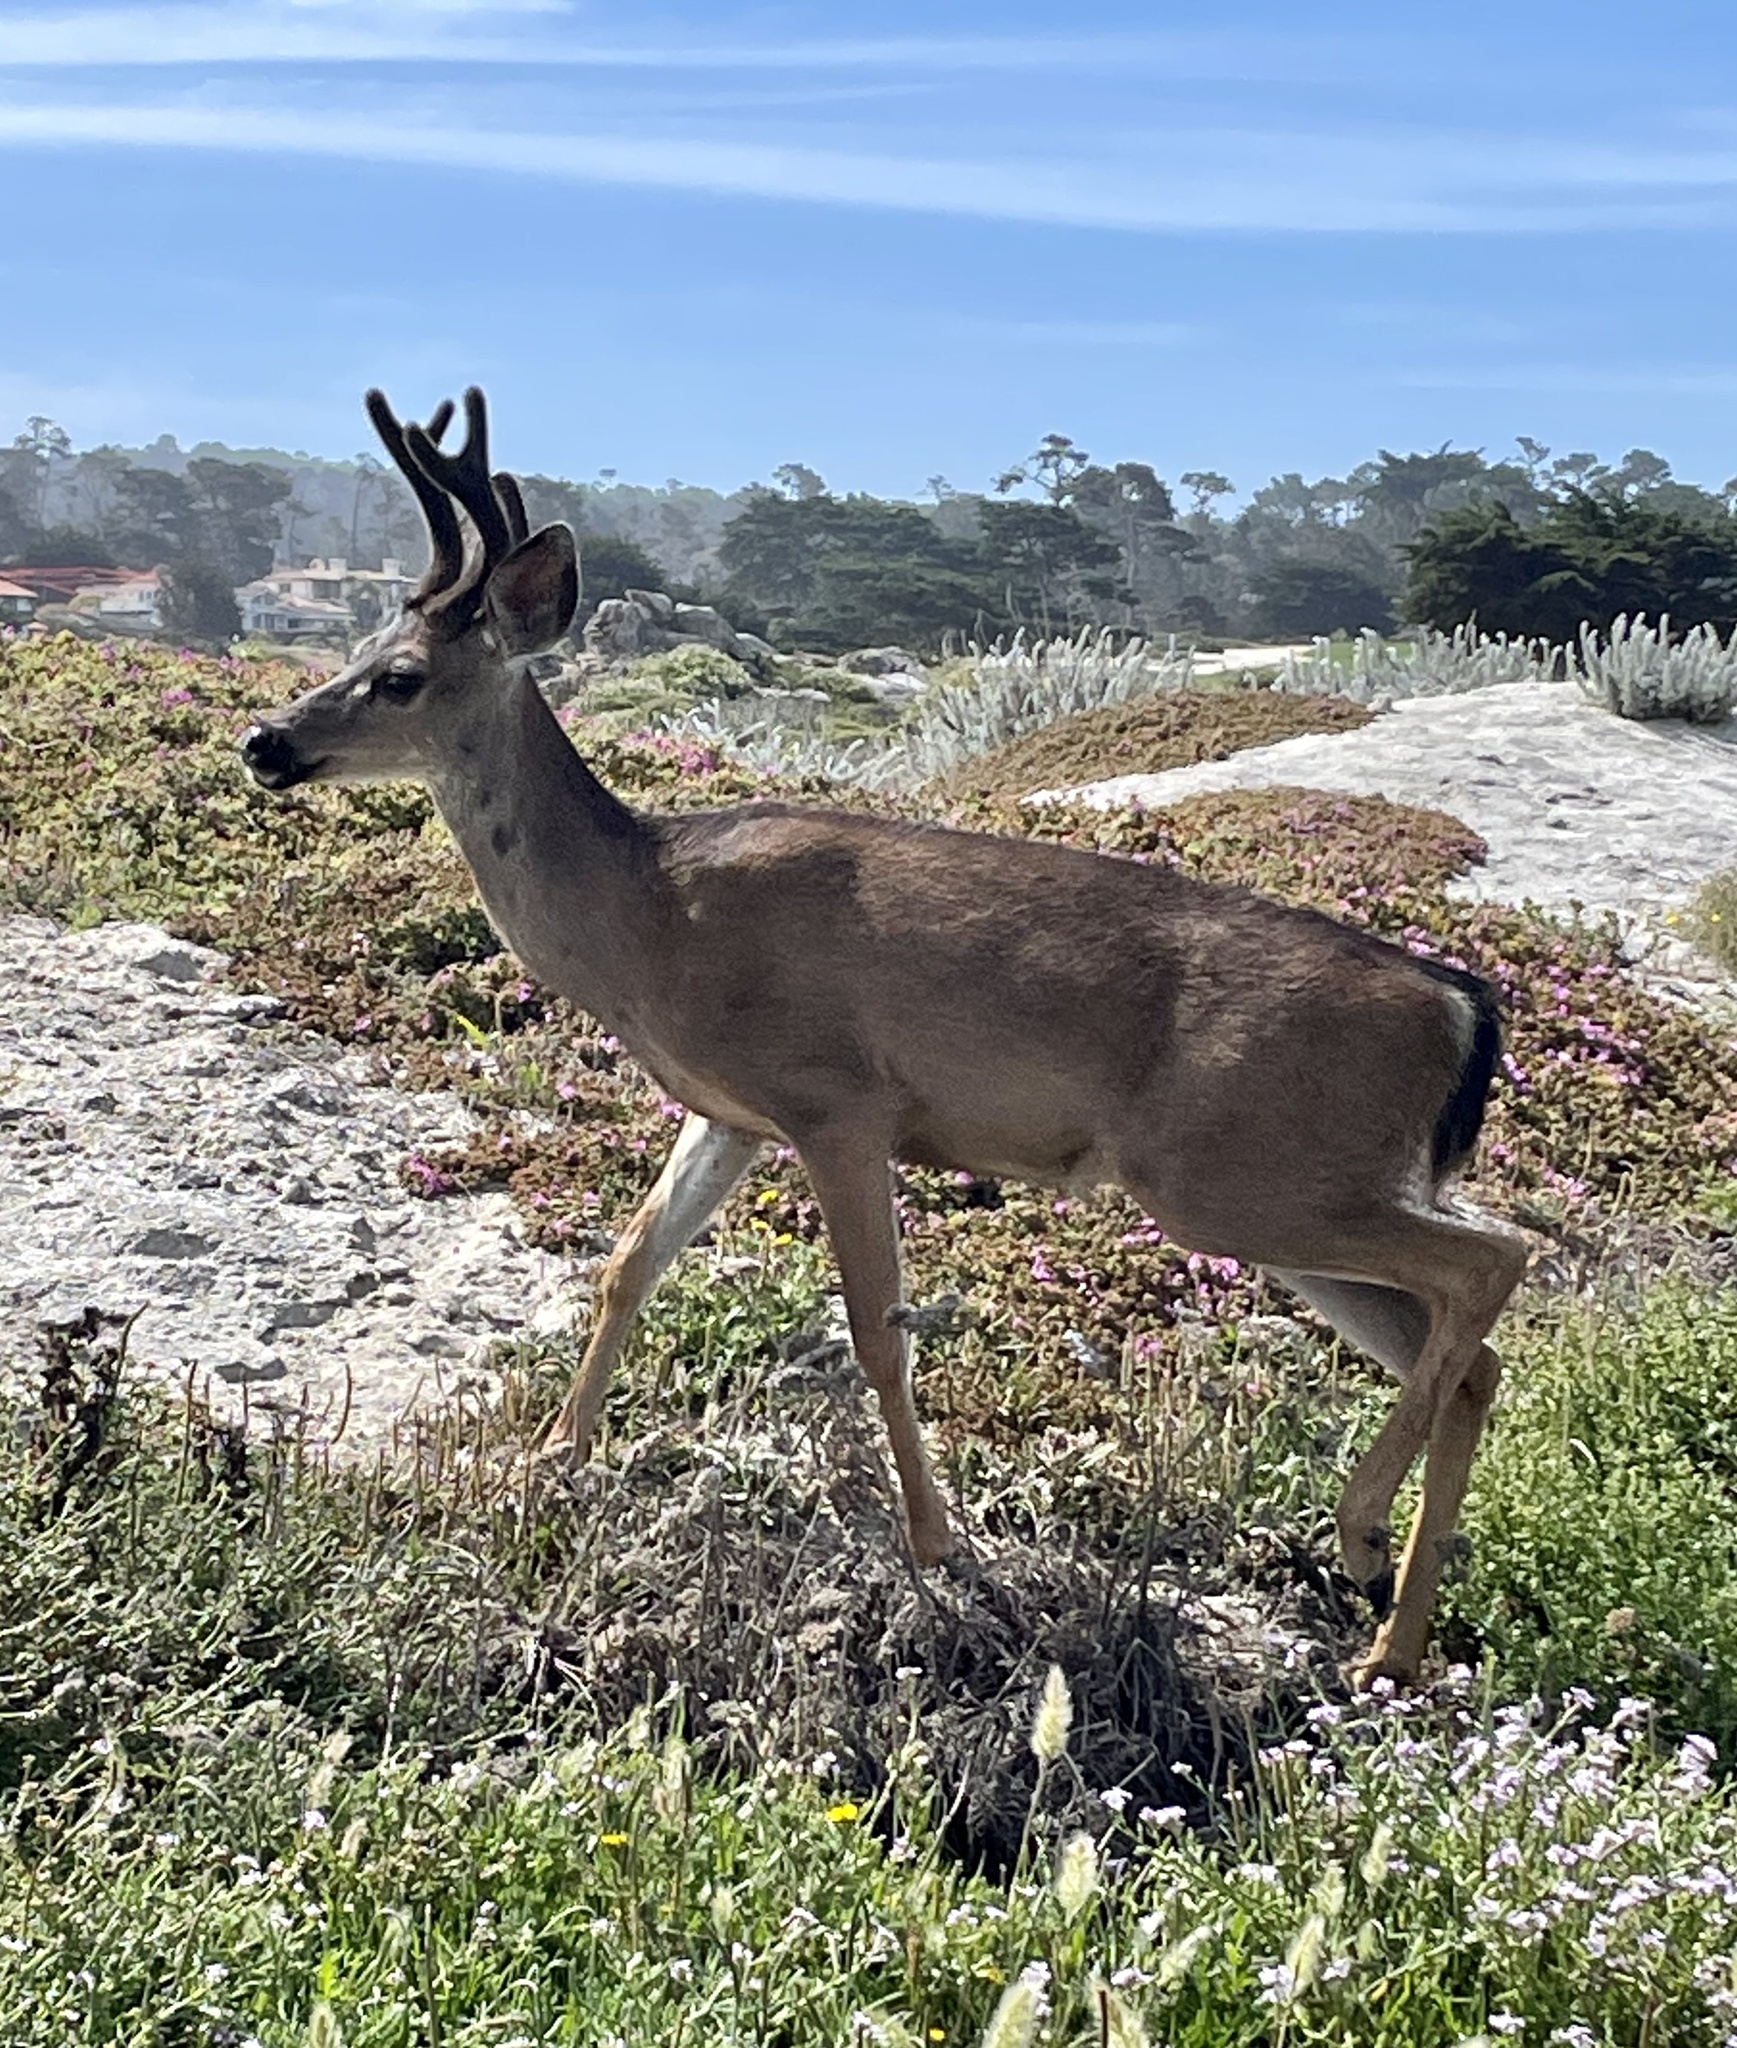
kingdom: Animalia
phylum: Chordata
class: Mammalia
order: Artiodactyla
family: Cervidae
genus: Odocoileus
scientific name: Odocoileus hemionus
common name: Mule deer
